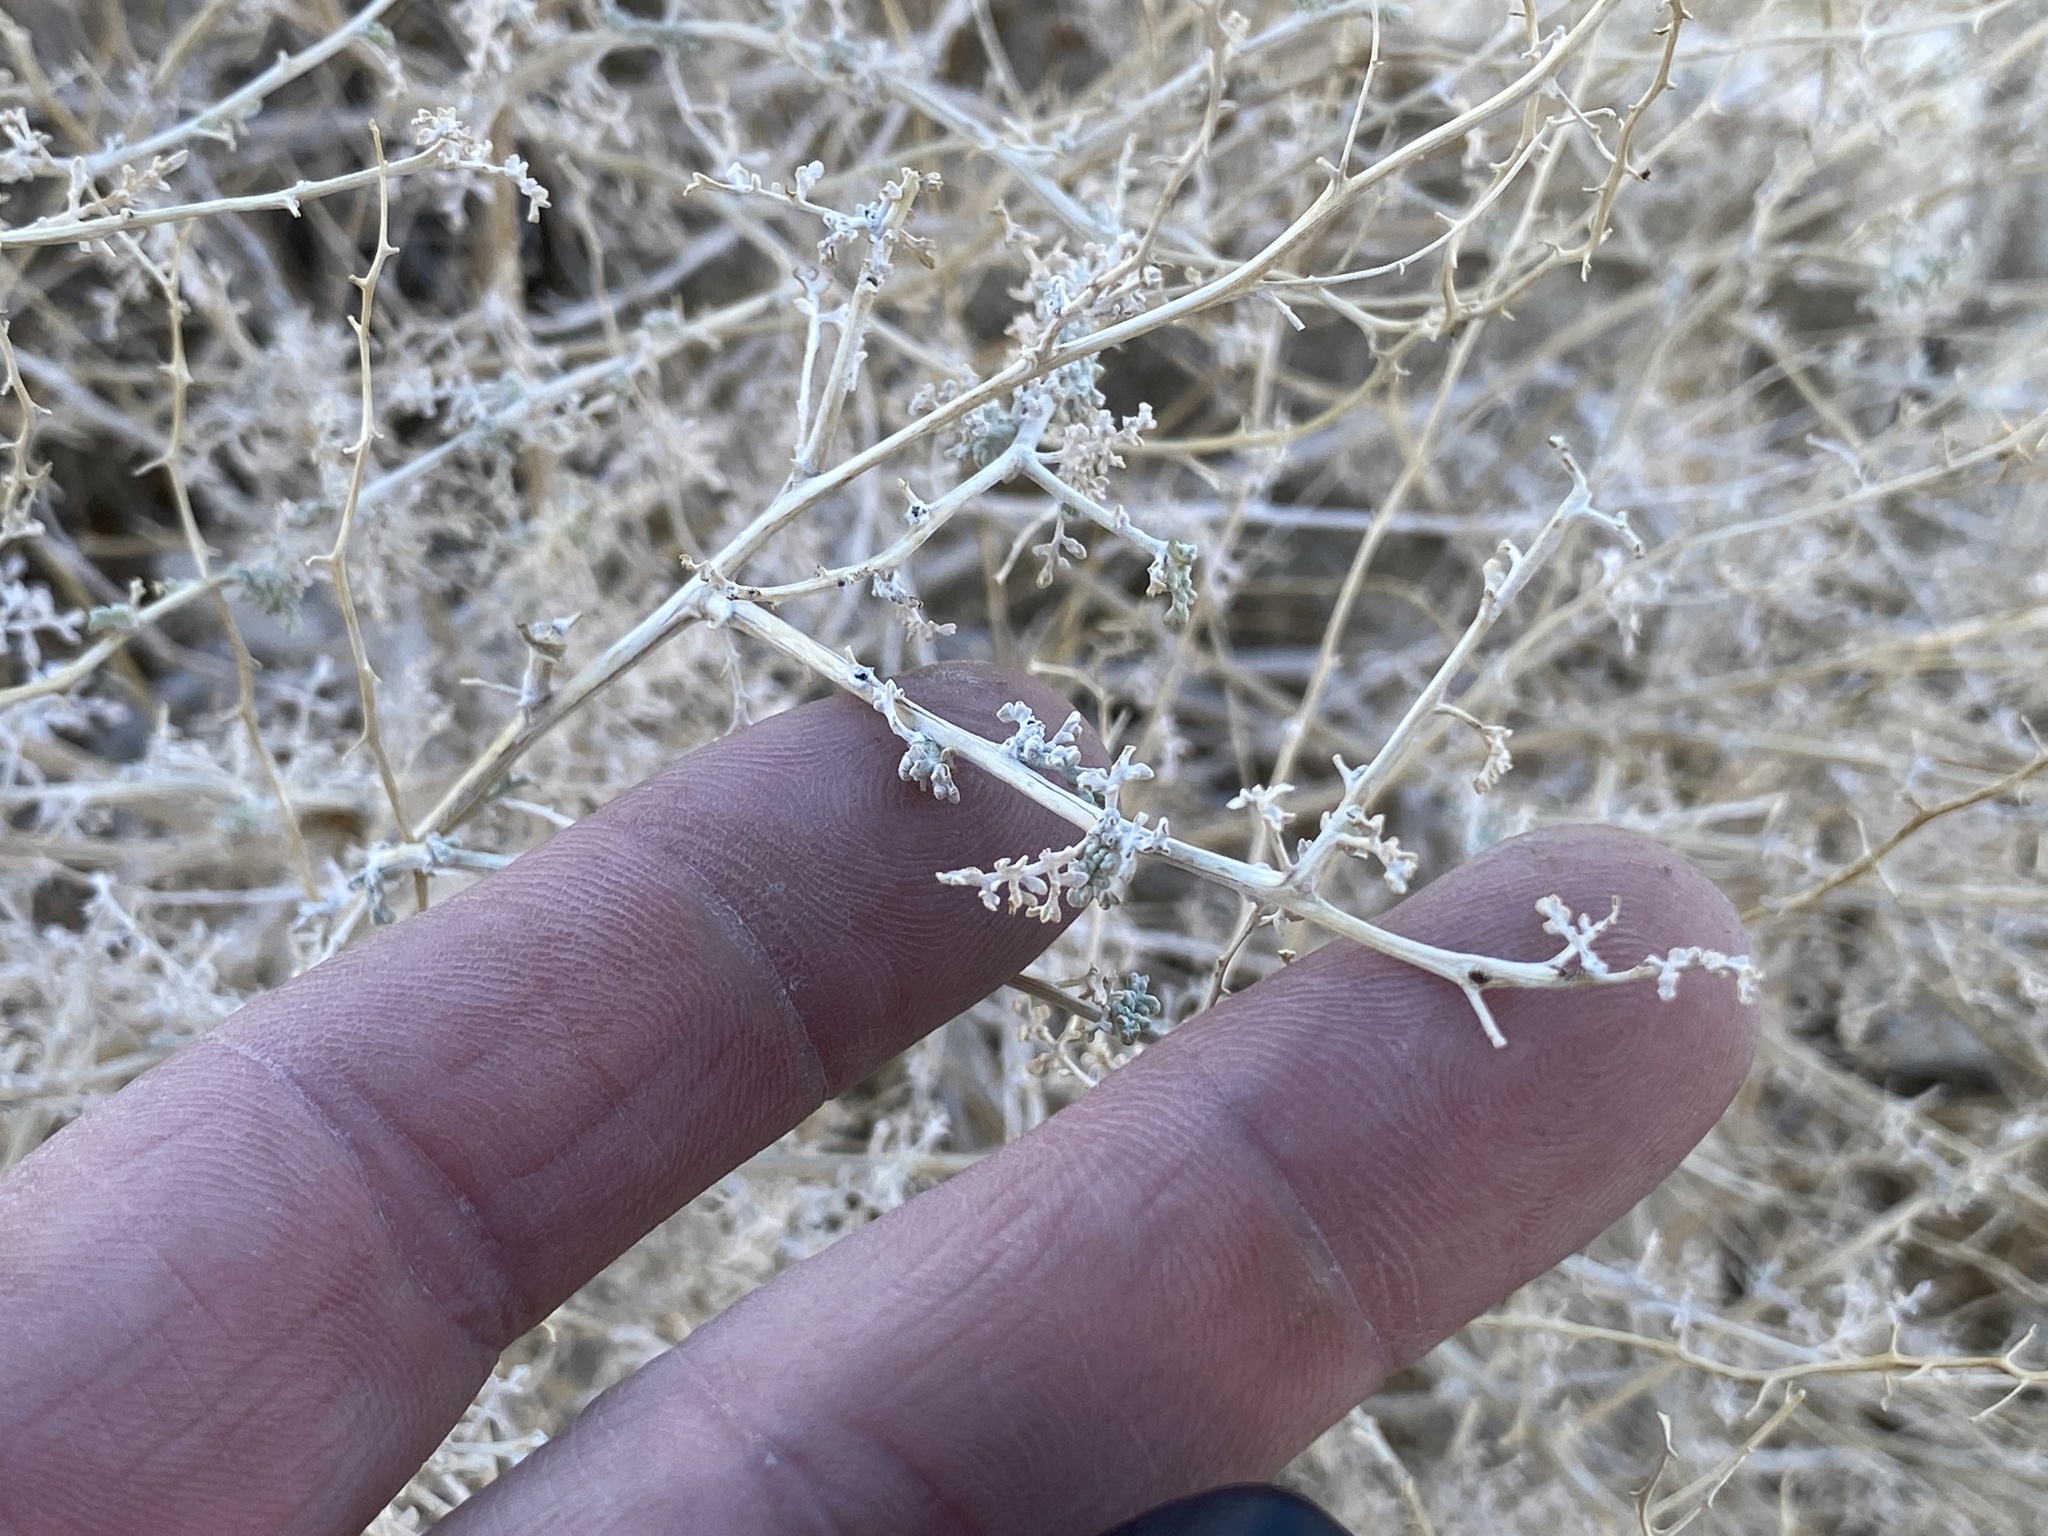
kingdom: Plantae
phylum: Tracheophyta
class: Magnoliopsida
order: Asterales
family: Asteraceae
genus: Ambrosia
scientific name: Ambrosia dumosa
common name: Bur-sage
